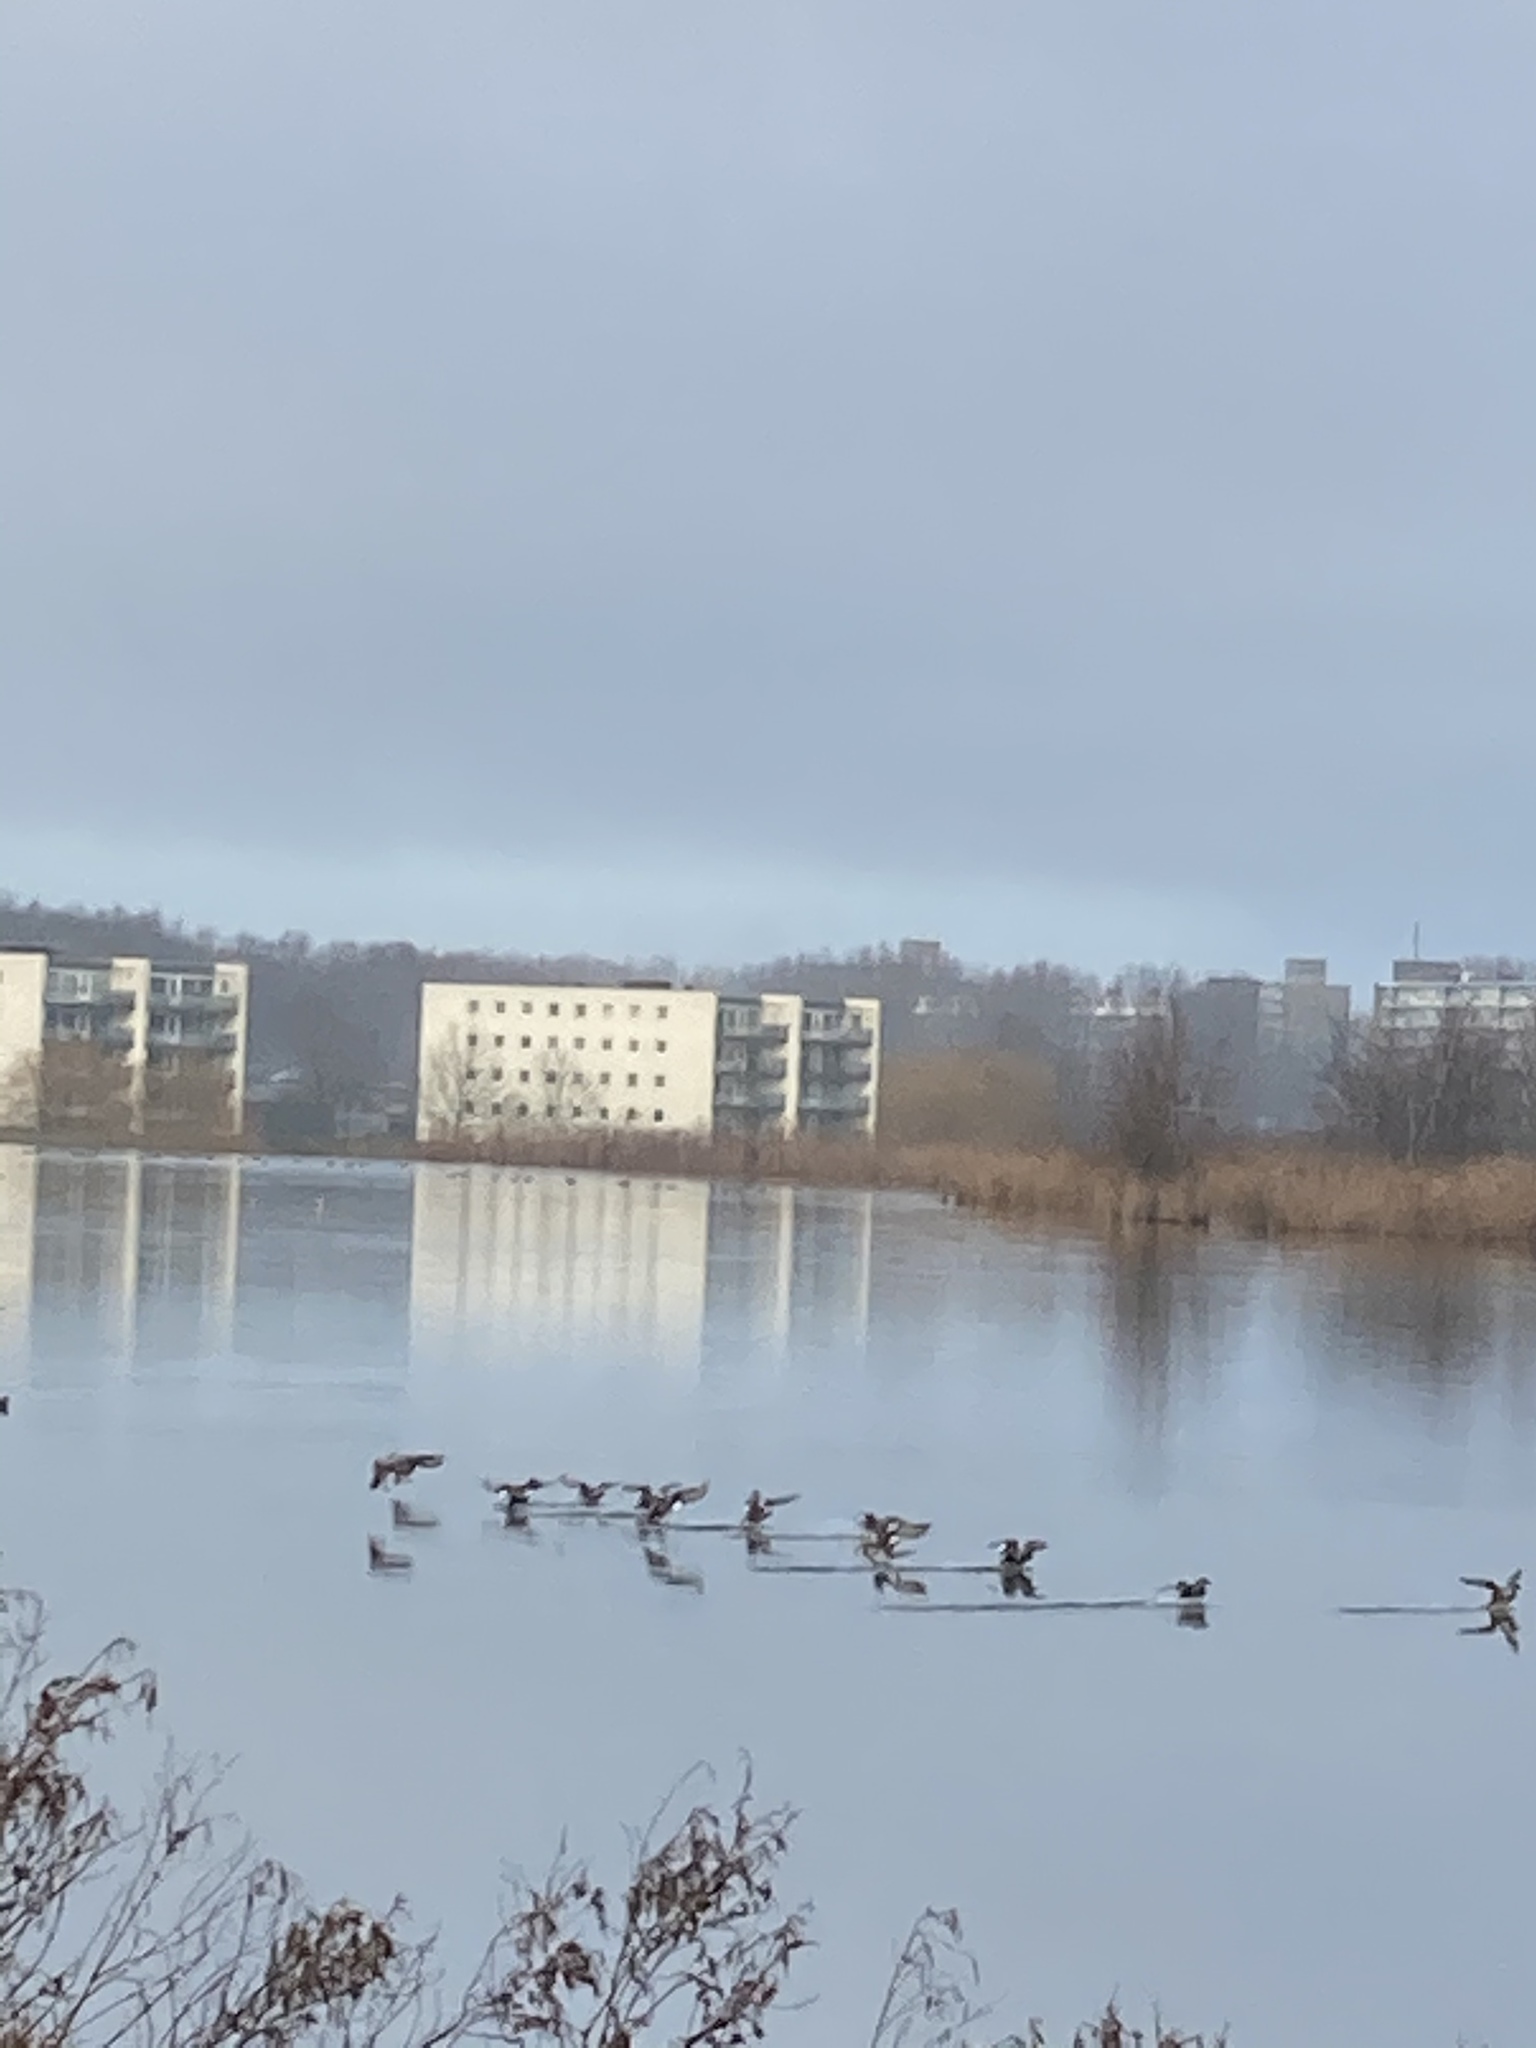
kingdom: Animalia
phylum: Chordata
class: Aves
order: Anseriformes
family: Anatidae
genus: Mareca
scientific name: Mareca strepera
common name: Gadwall
